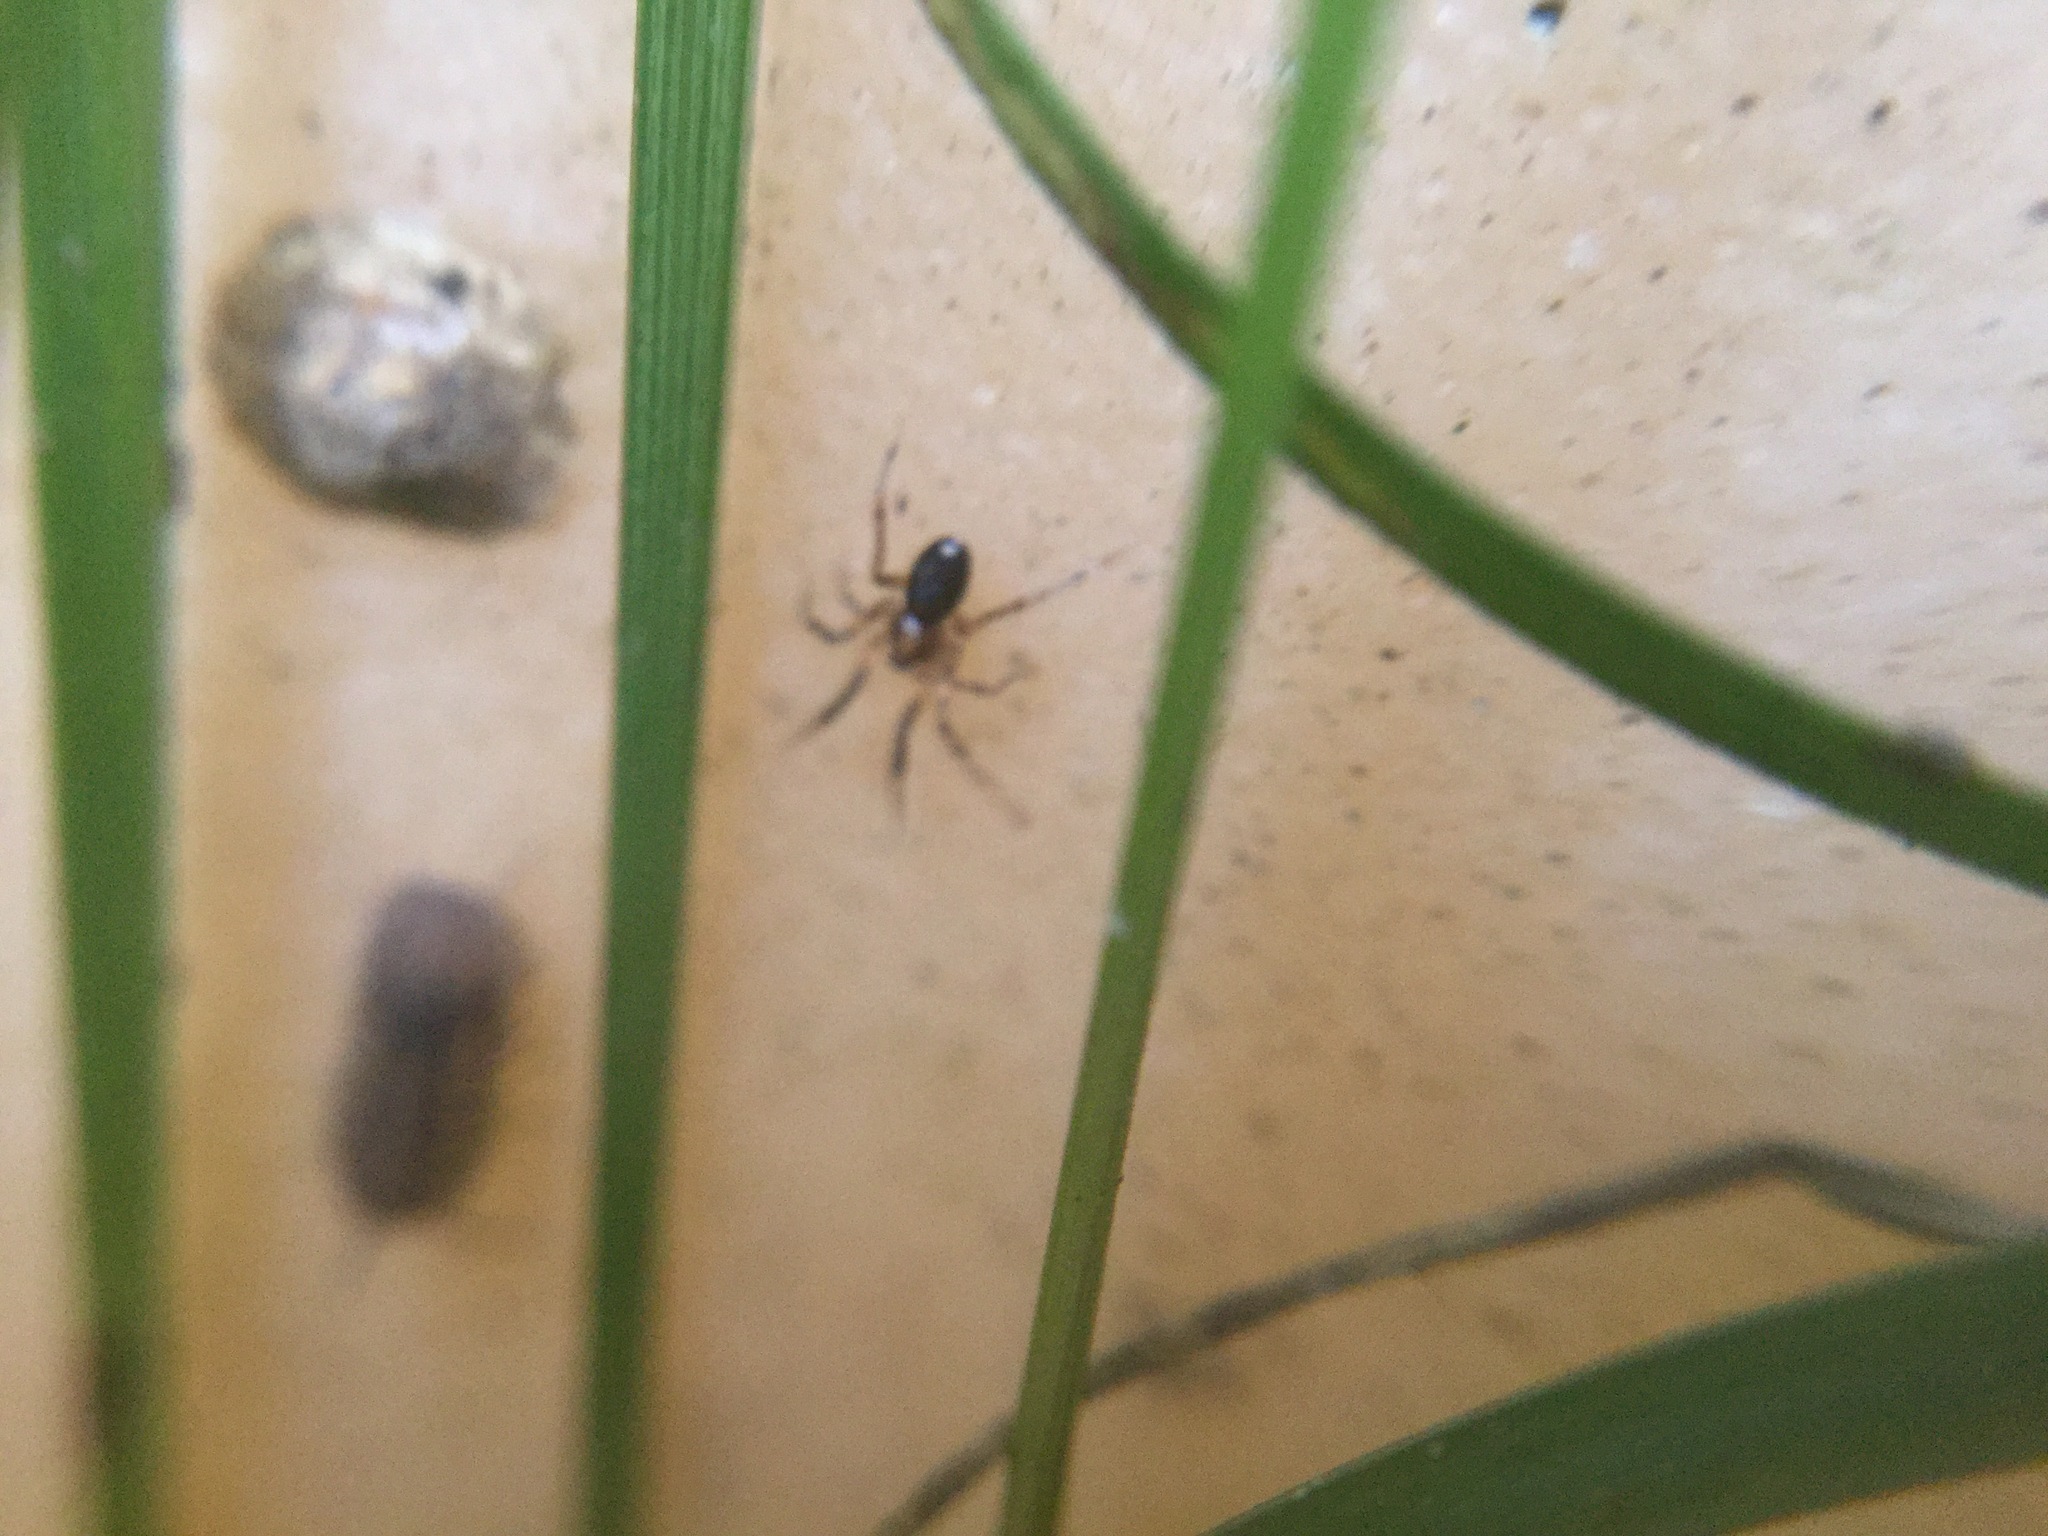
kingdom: Animalia
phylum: Arthropoda
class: Arachnida
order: Araneae
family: Phrurolithidae
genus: Phrurotimpus
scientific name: Phrurotimpus borealis
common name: Greater ant-mimic corinne spider
